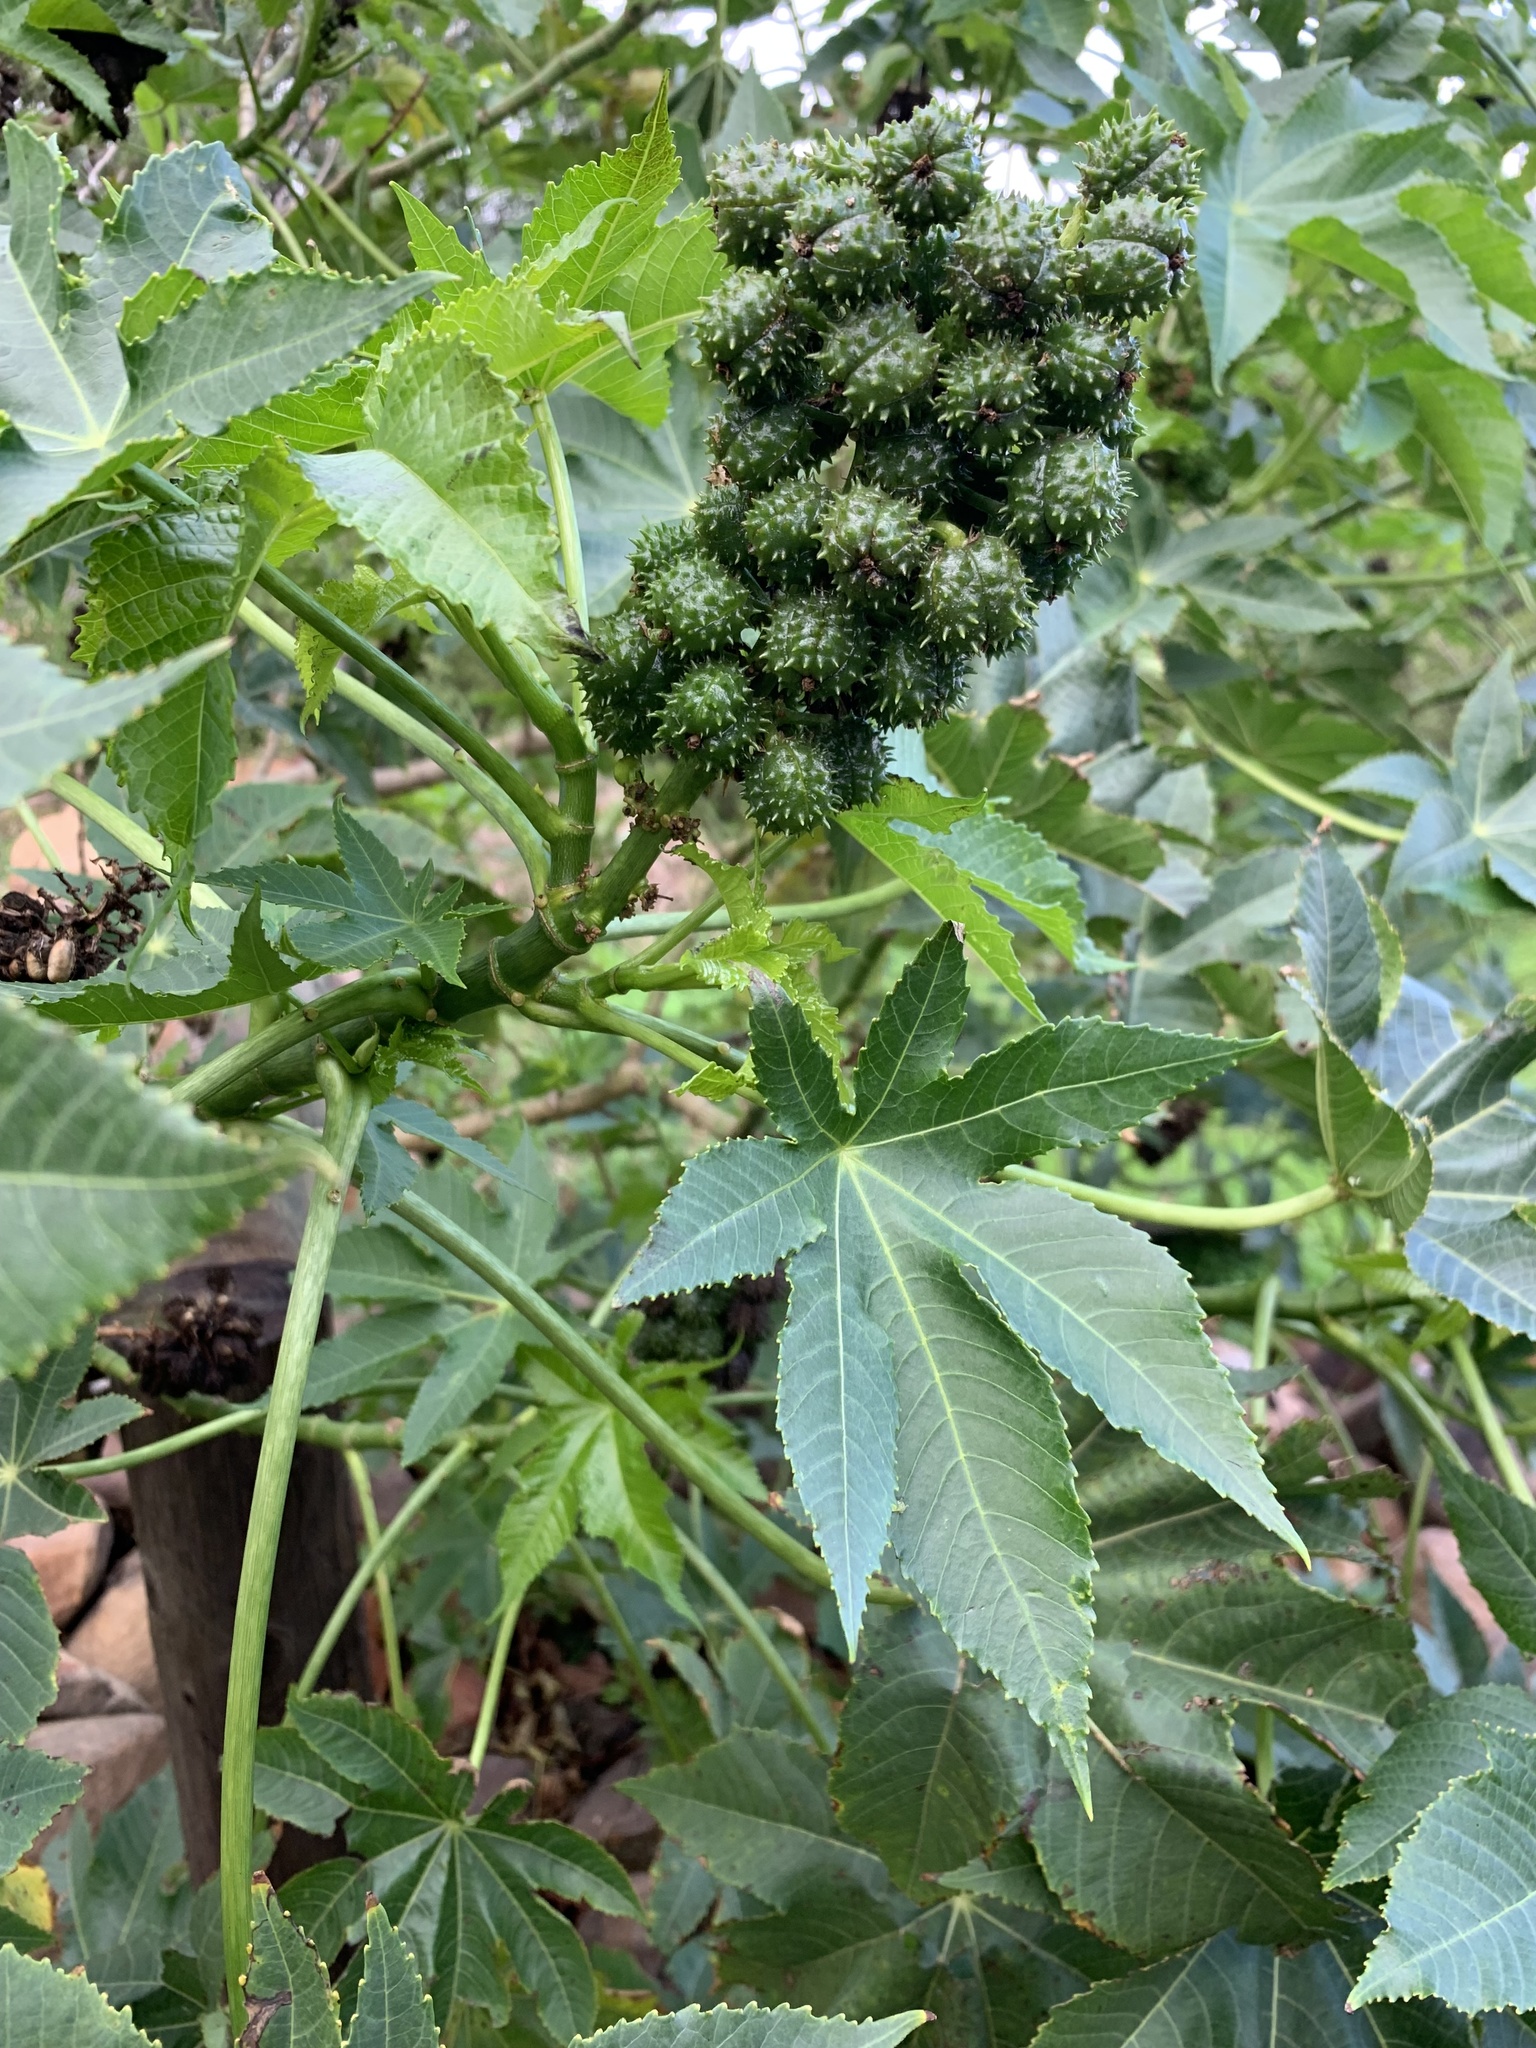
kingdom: Plantae
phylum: Tracheophyta
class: Magnoliopsida
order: Malpighiales
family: Euphorbiaceae
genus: Ricinus
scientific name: Ricinus communis
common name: Castor-oil-plant
